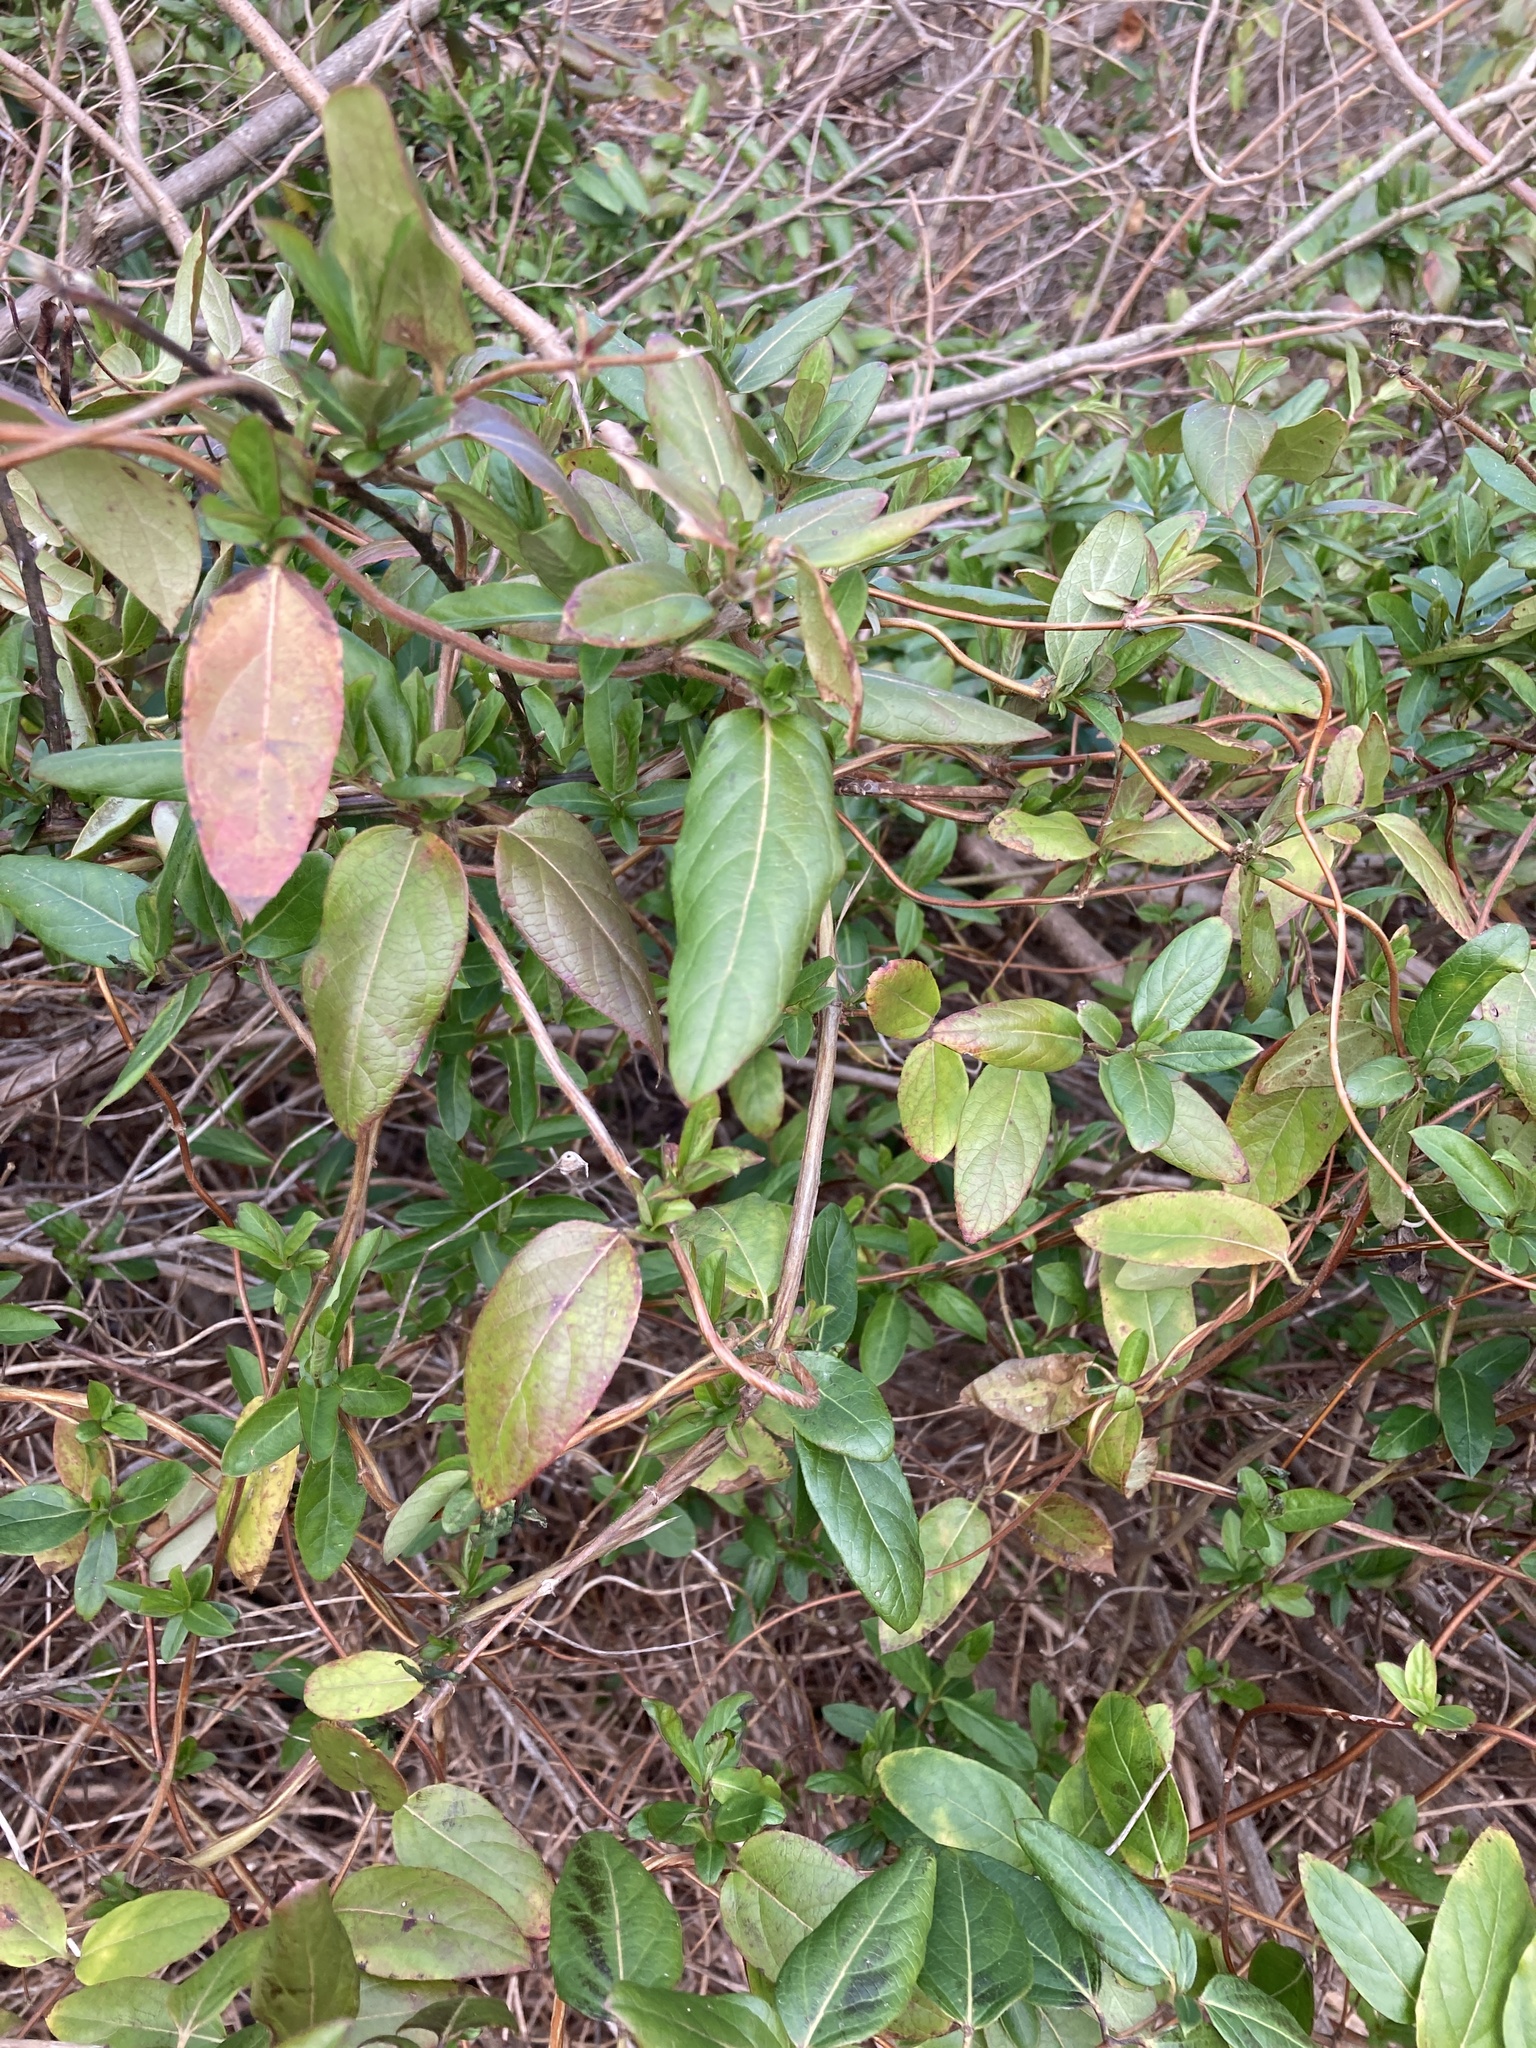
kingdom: Plantae
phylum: Tracheophyta
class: Magnoliopsida
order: Dipsacales
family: Caprifoliaceae
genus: Lonicera
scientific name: Lonicera japonica
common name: Japanese honeysuckle
